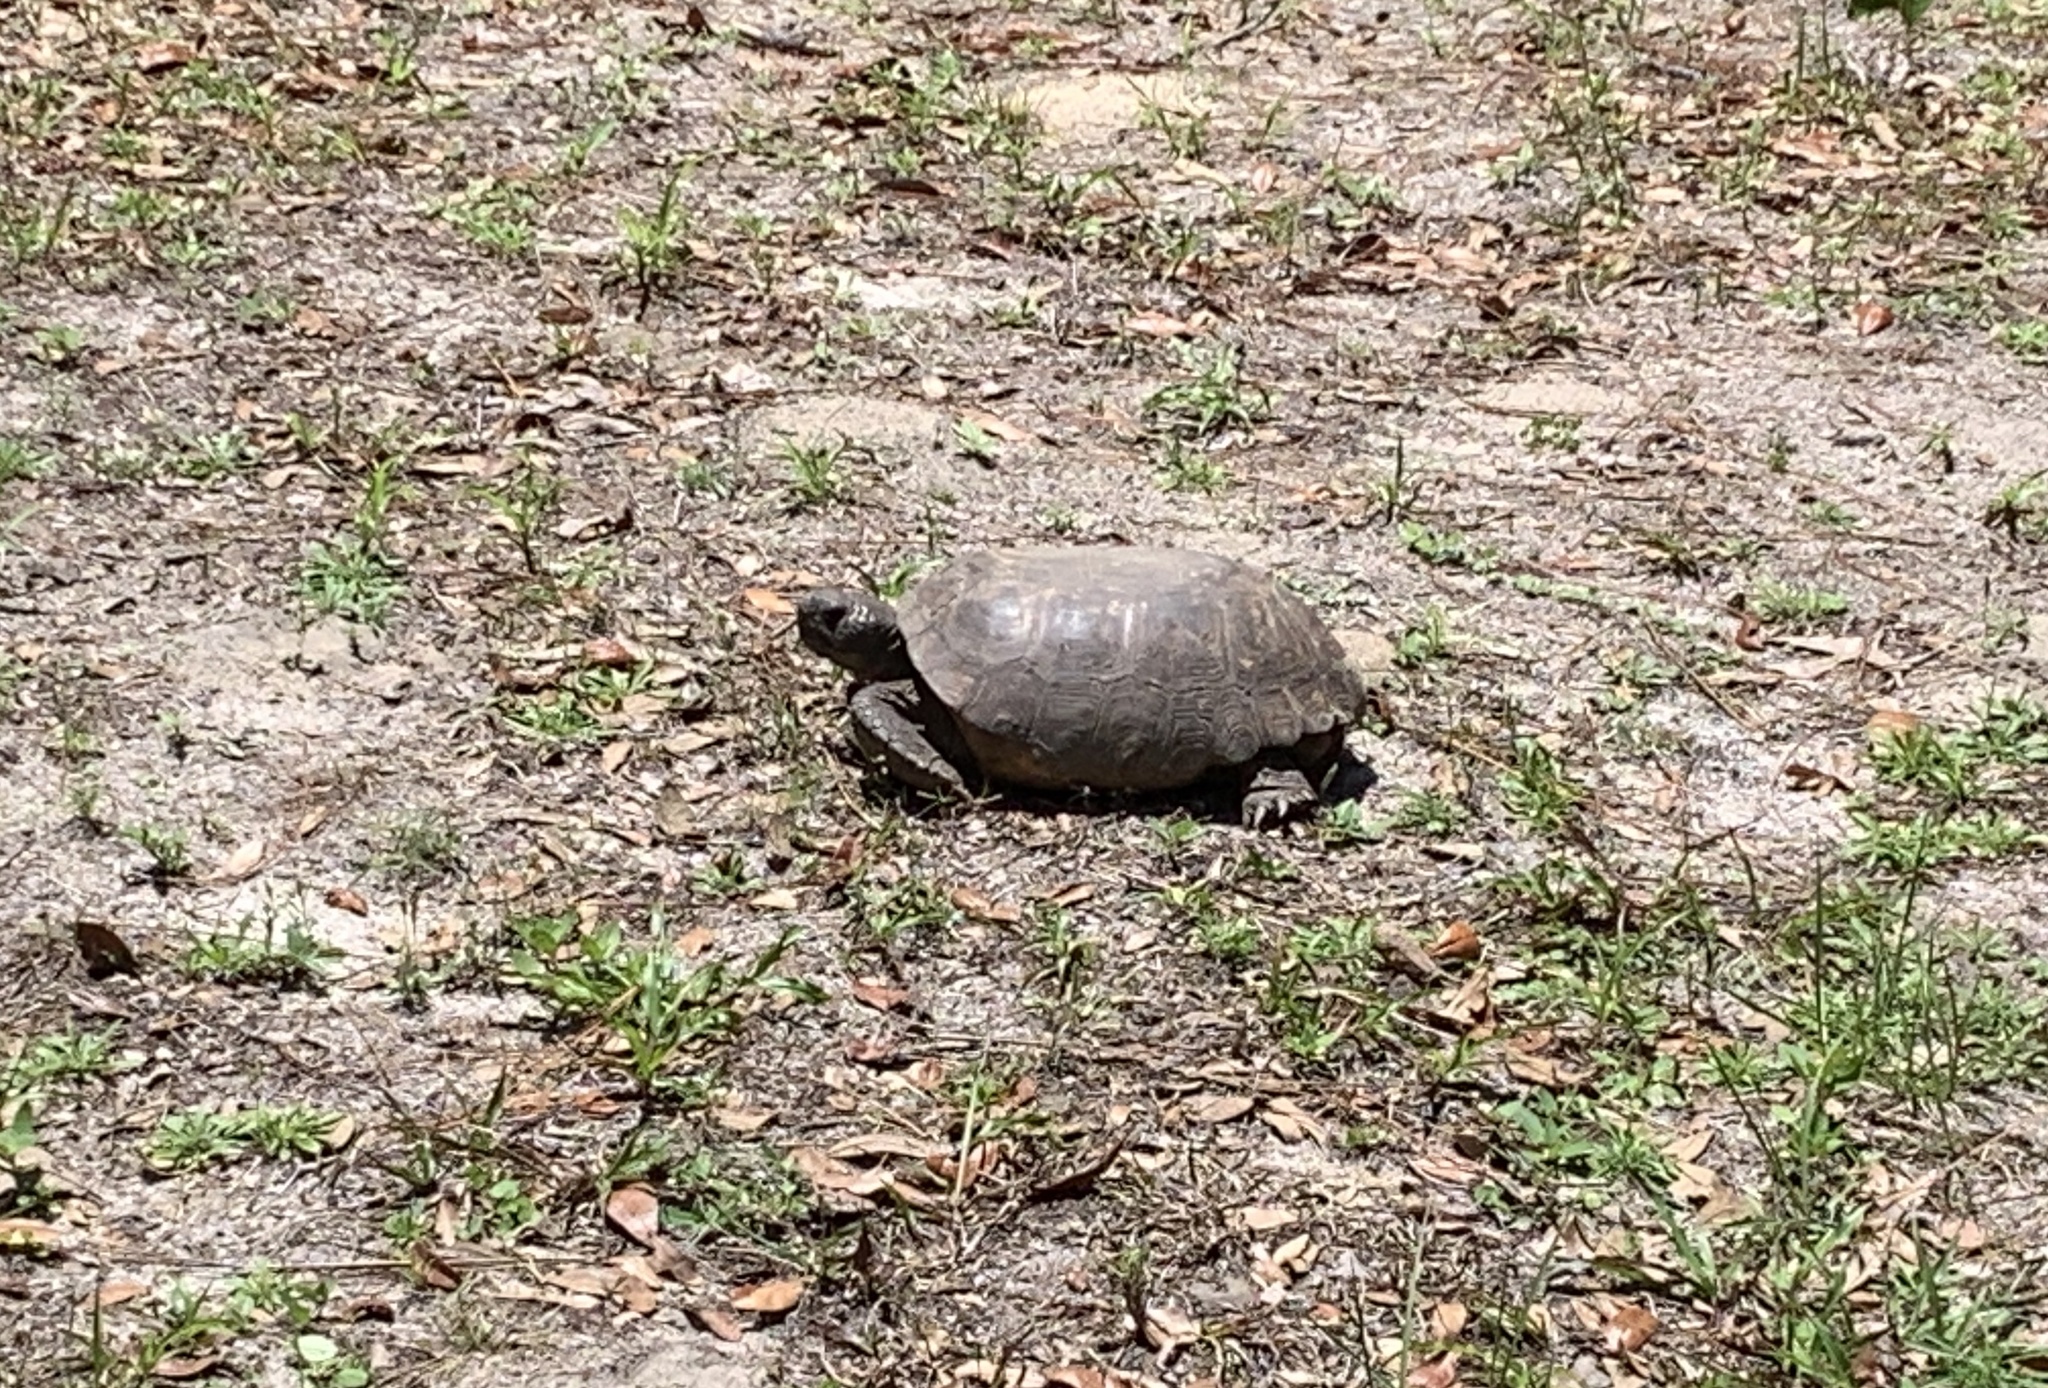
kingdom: Animalia
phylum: Chordata
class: Testudines
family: Testudinidae
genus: Gopherus
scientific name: Gopherus polyphemus
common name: Florida gopher tortoise
